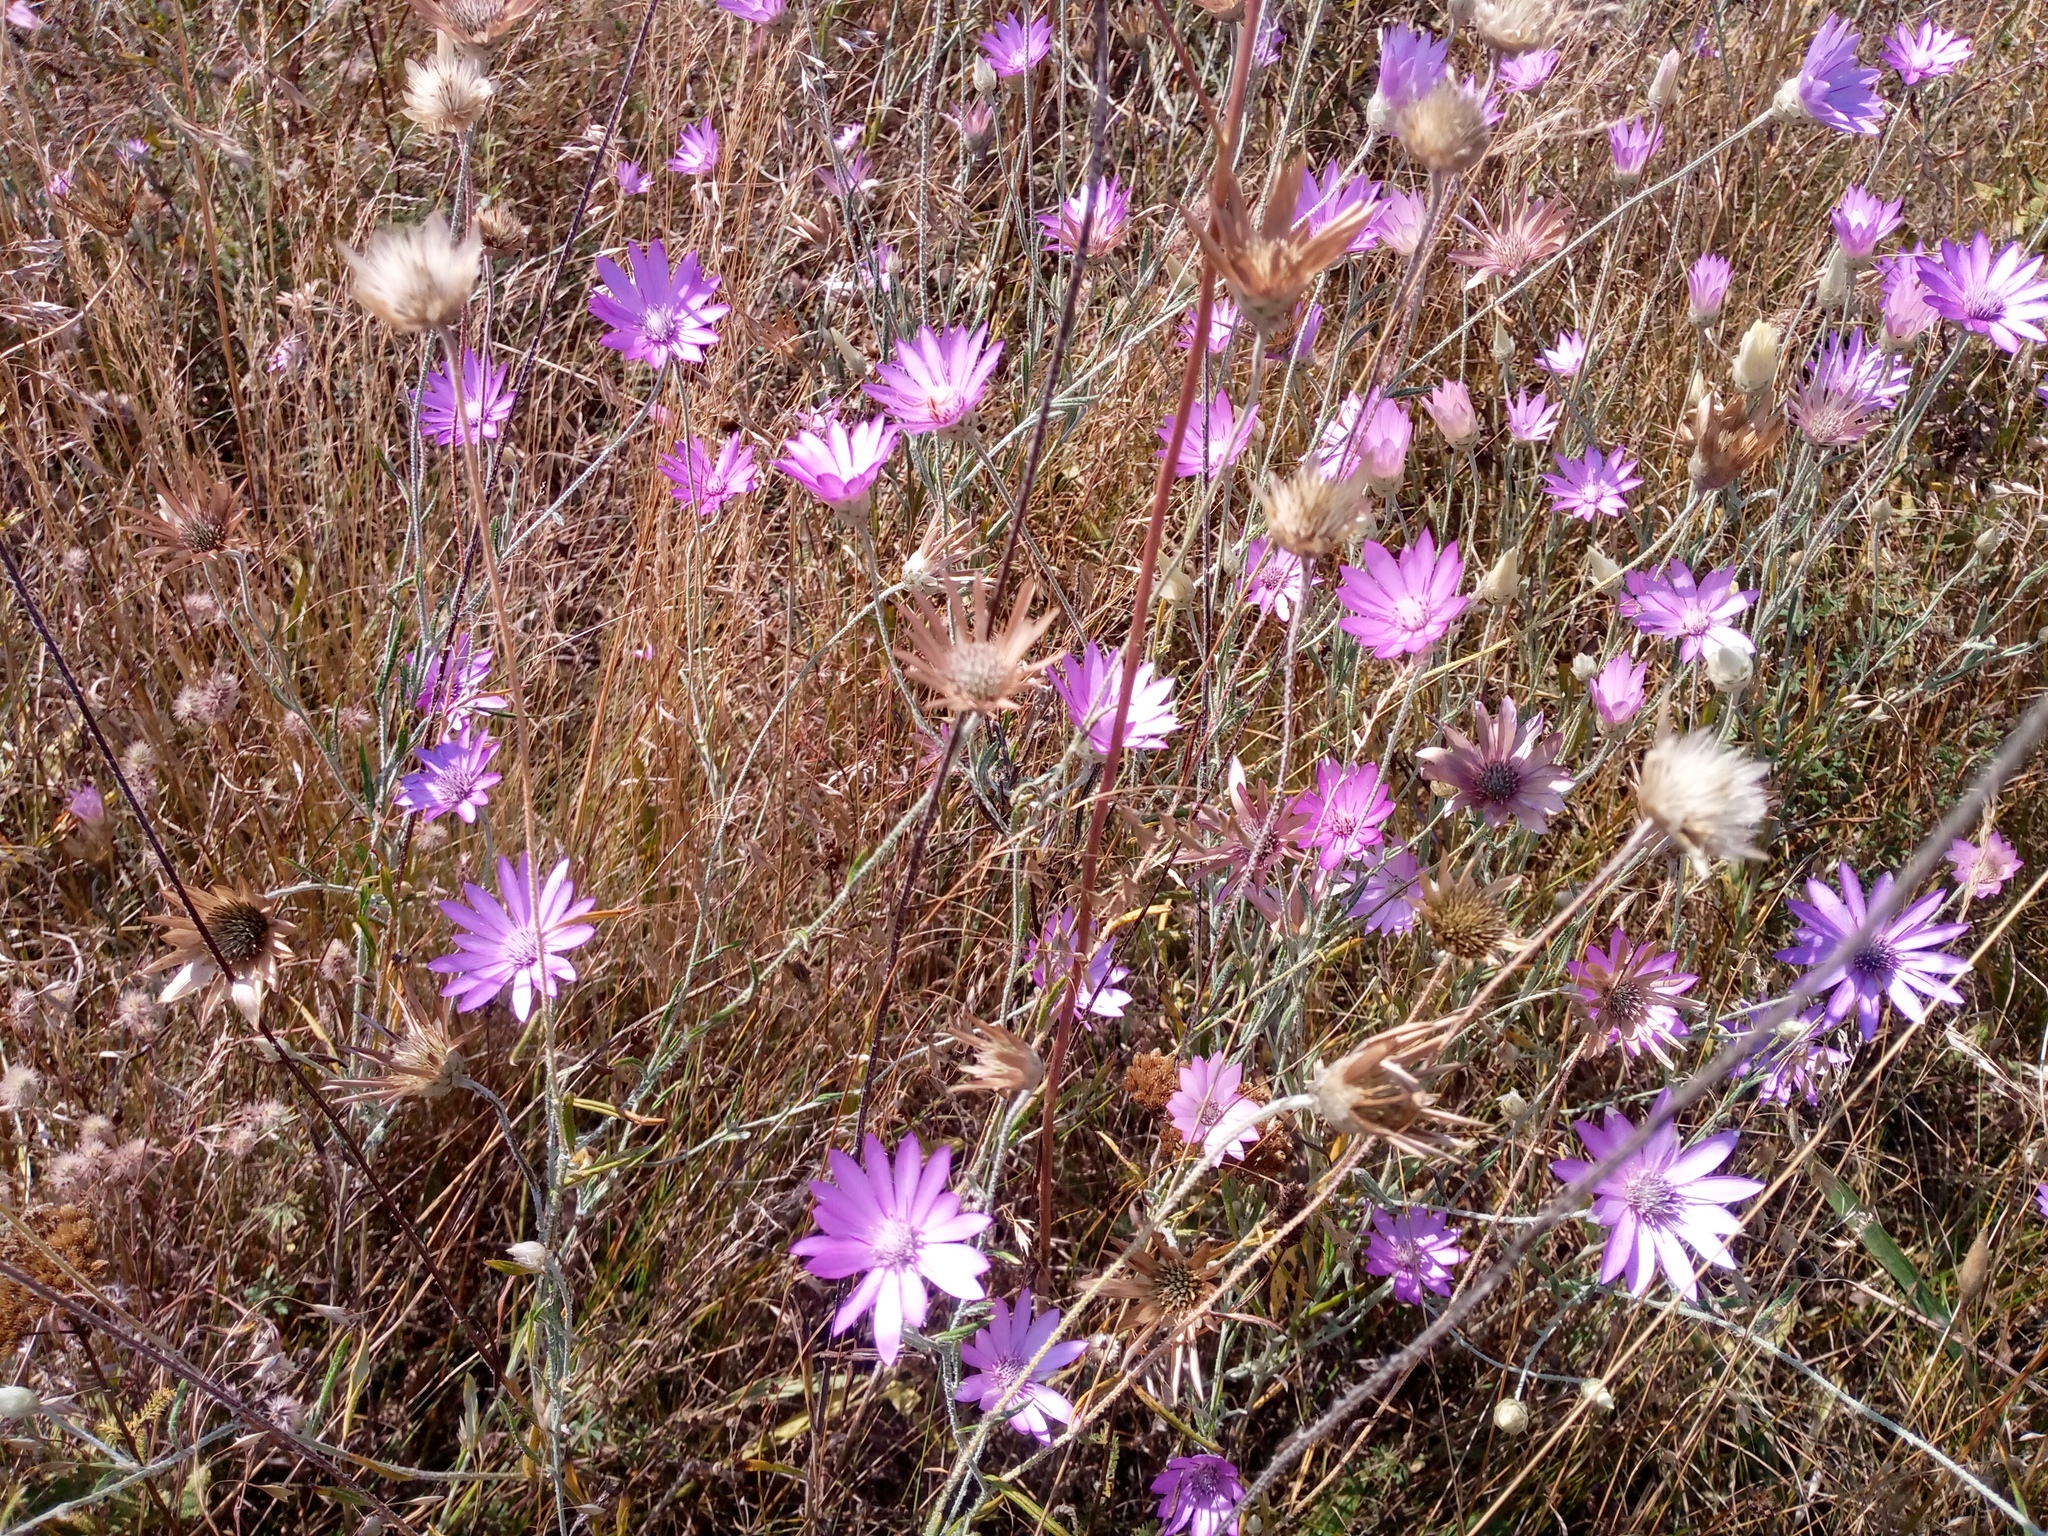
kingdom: Plantae
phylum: Tracheophyta
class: Magnoliopsida
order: Asterales
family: Asteraceae
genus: Xeranthemum
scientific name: Xeranthemum annuum
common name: Immortelle
